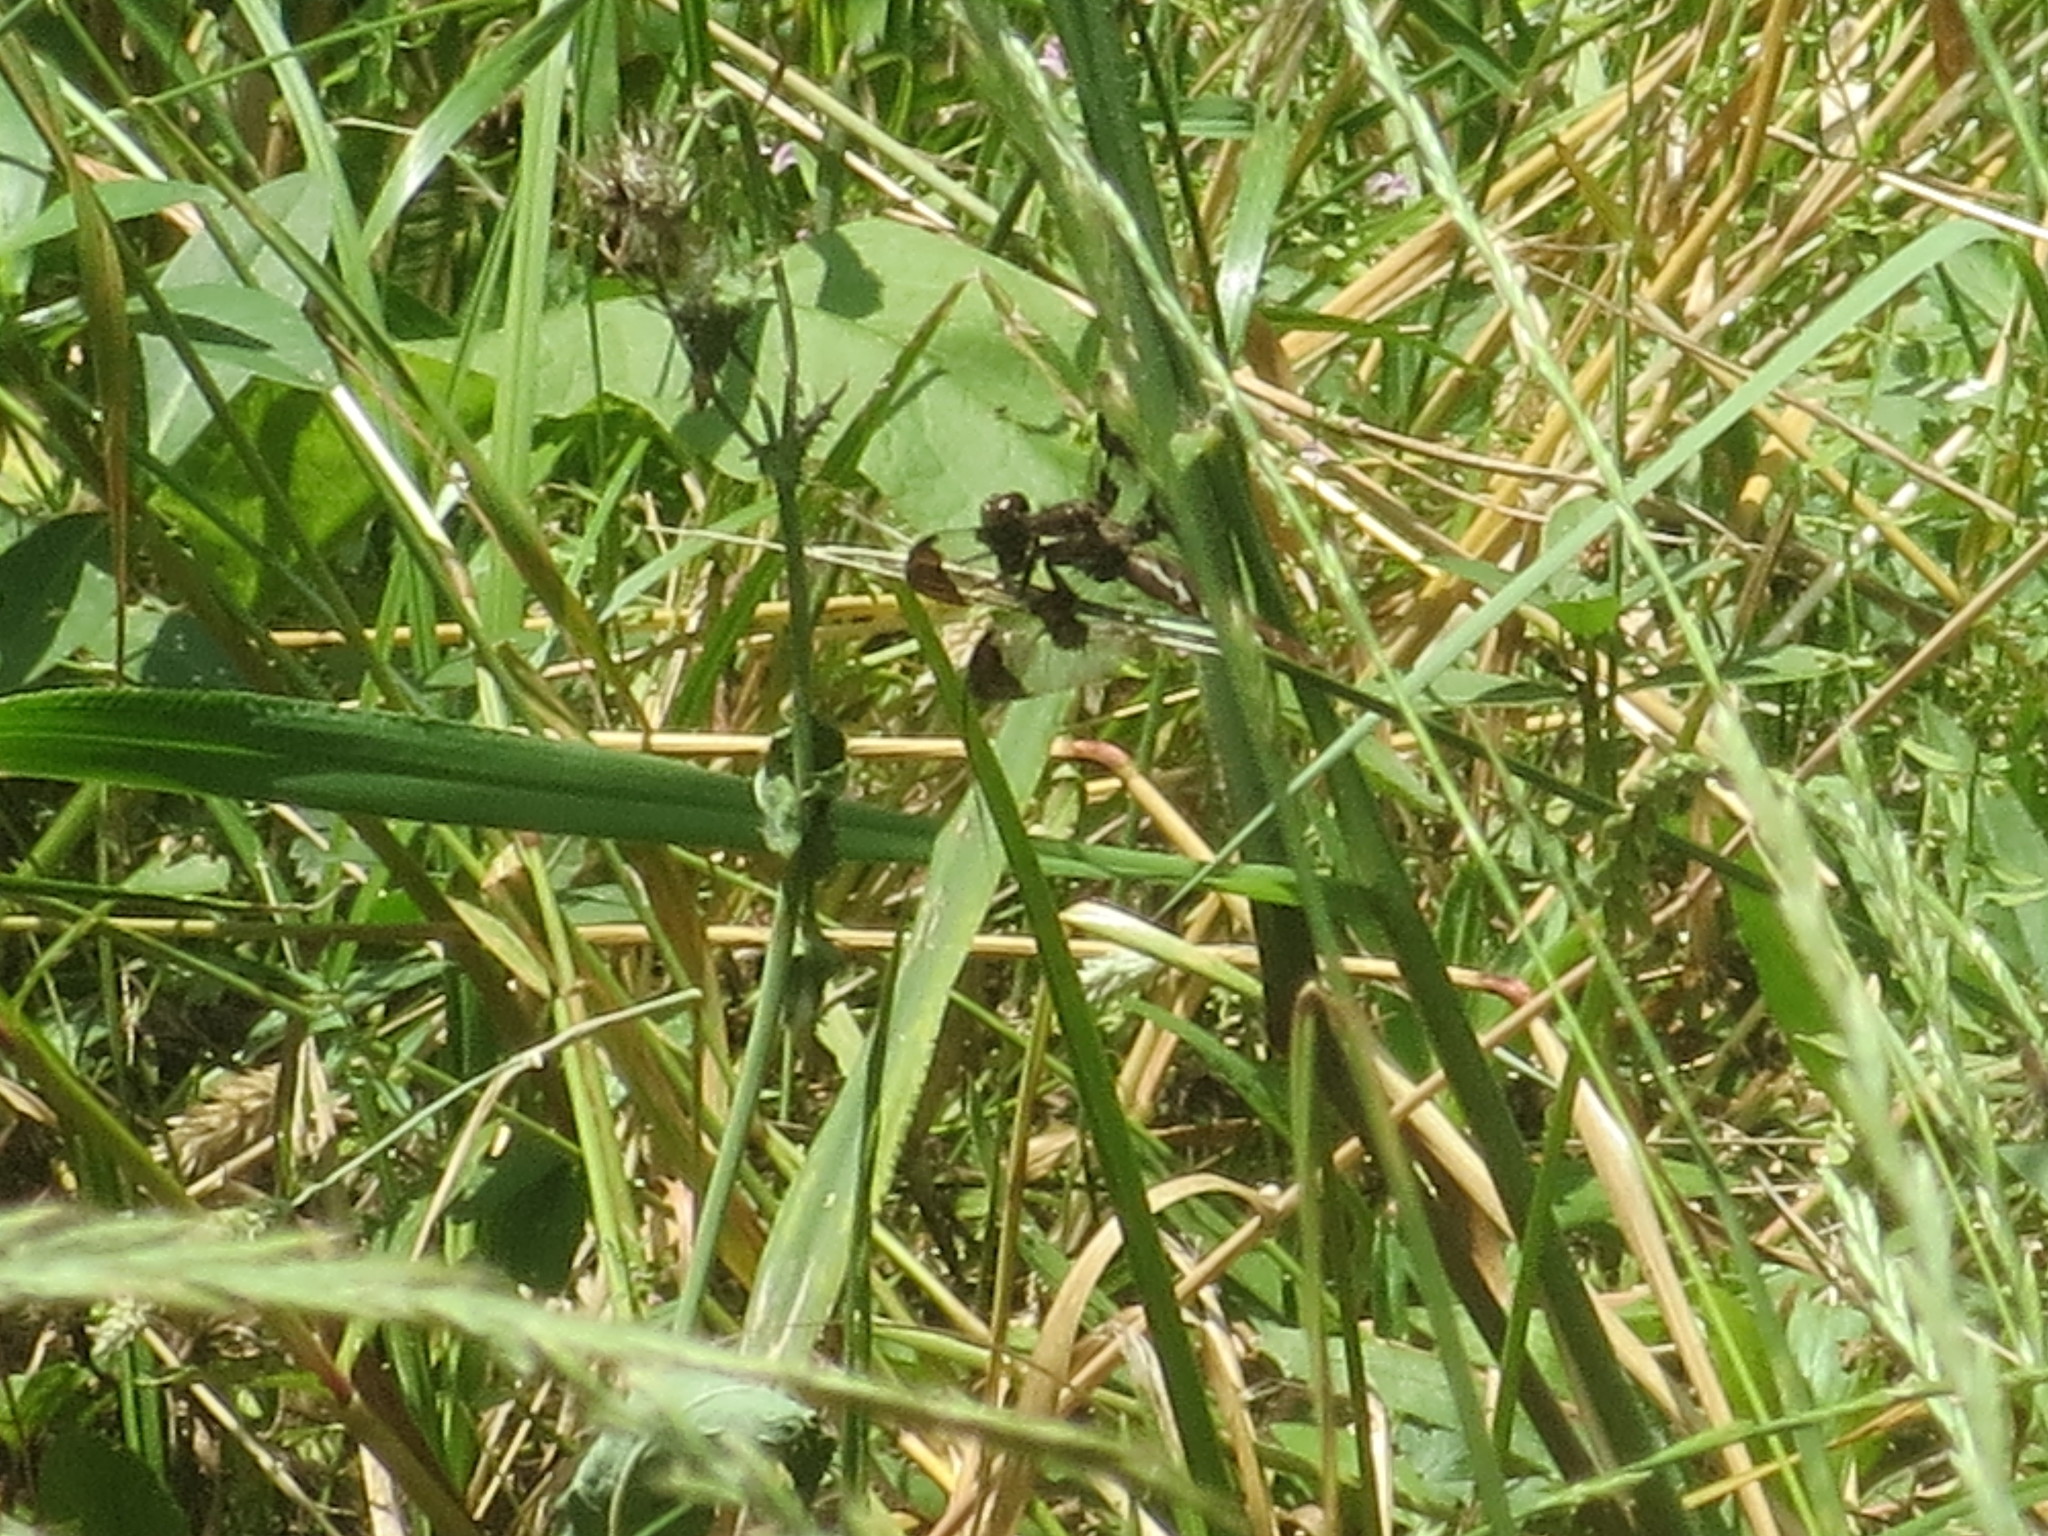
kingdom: Animalia
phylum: Arthropoda
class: Insecta
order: Odonata
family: Libellulidae
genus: Plathemis
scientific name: Plathemis lydia
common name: Common whitetail
